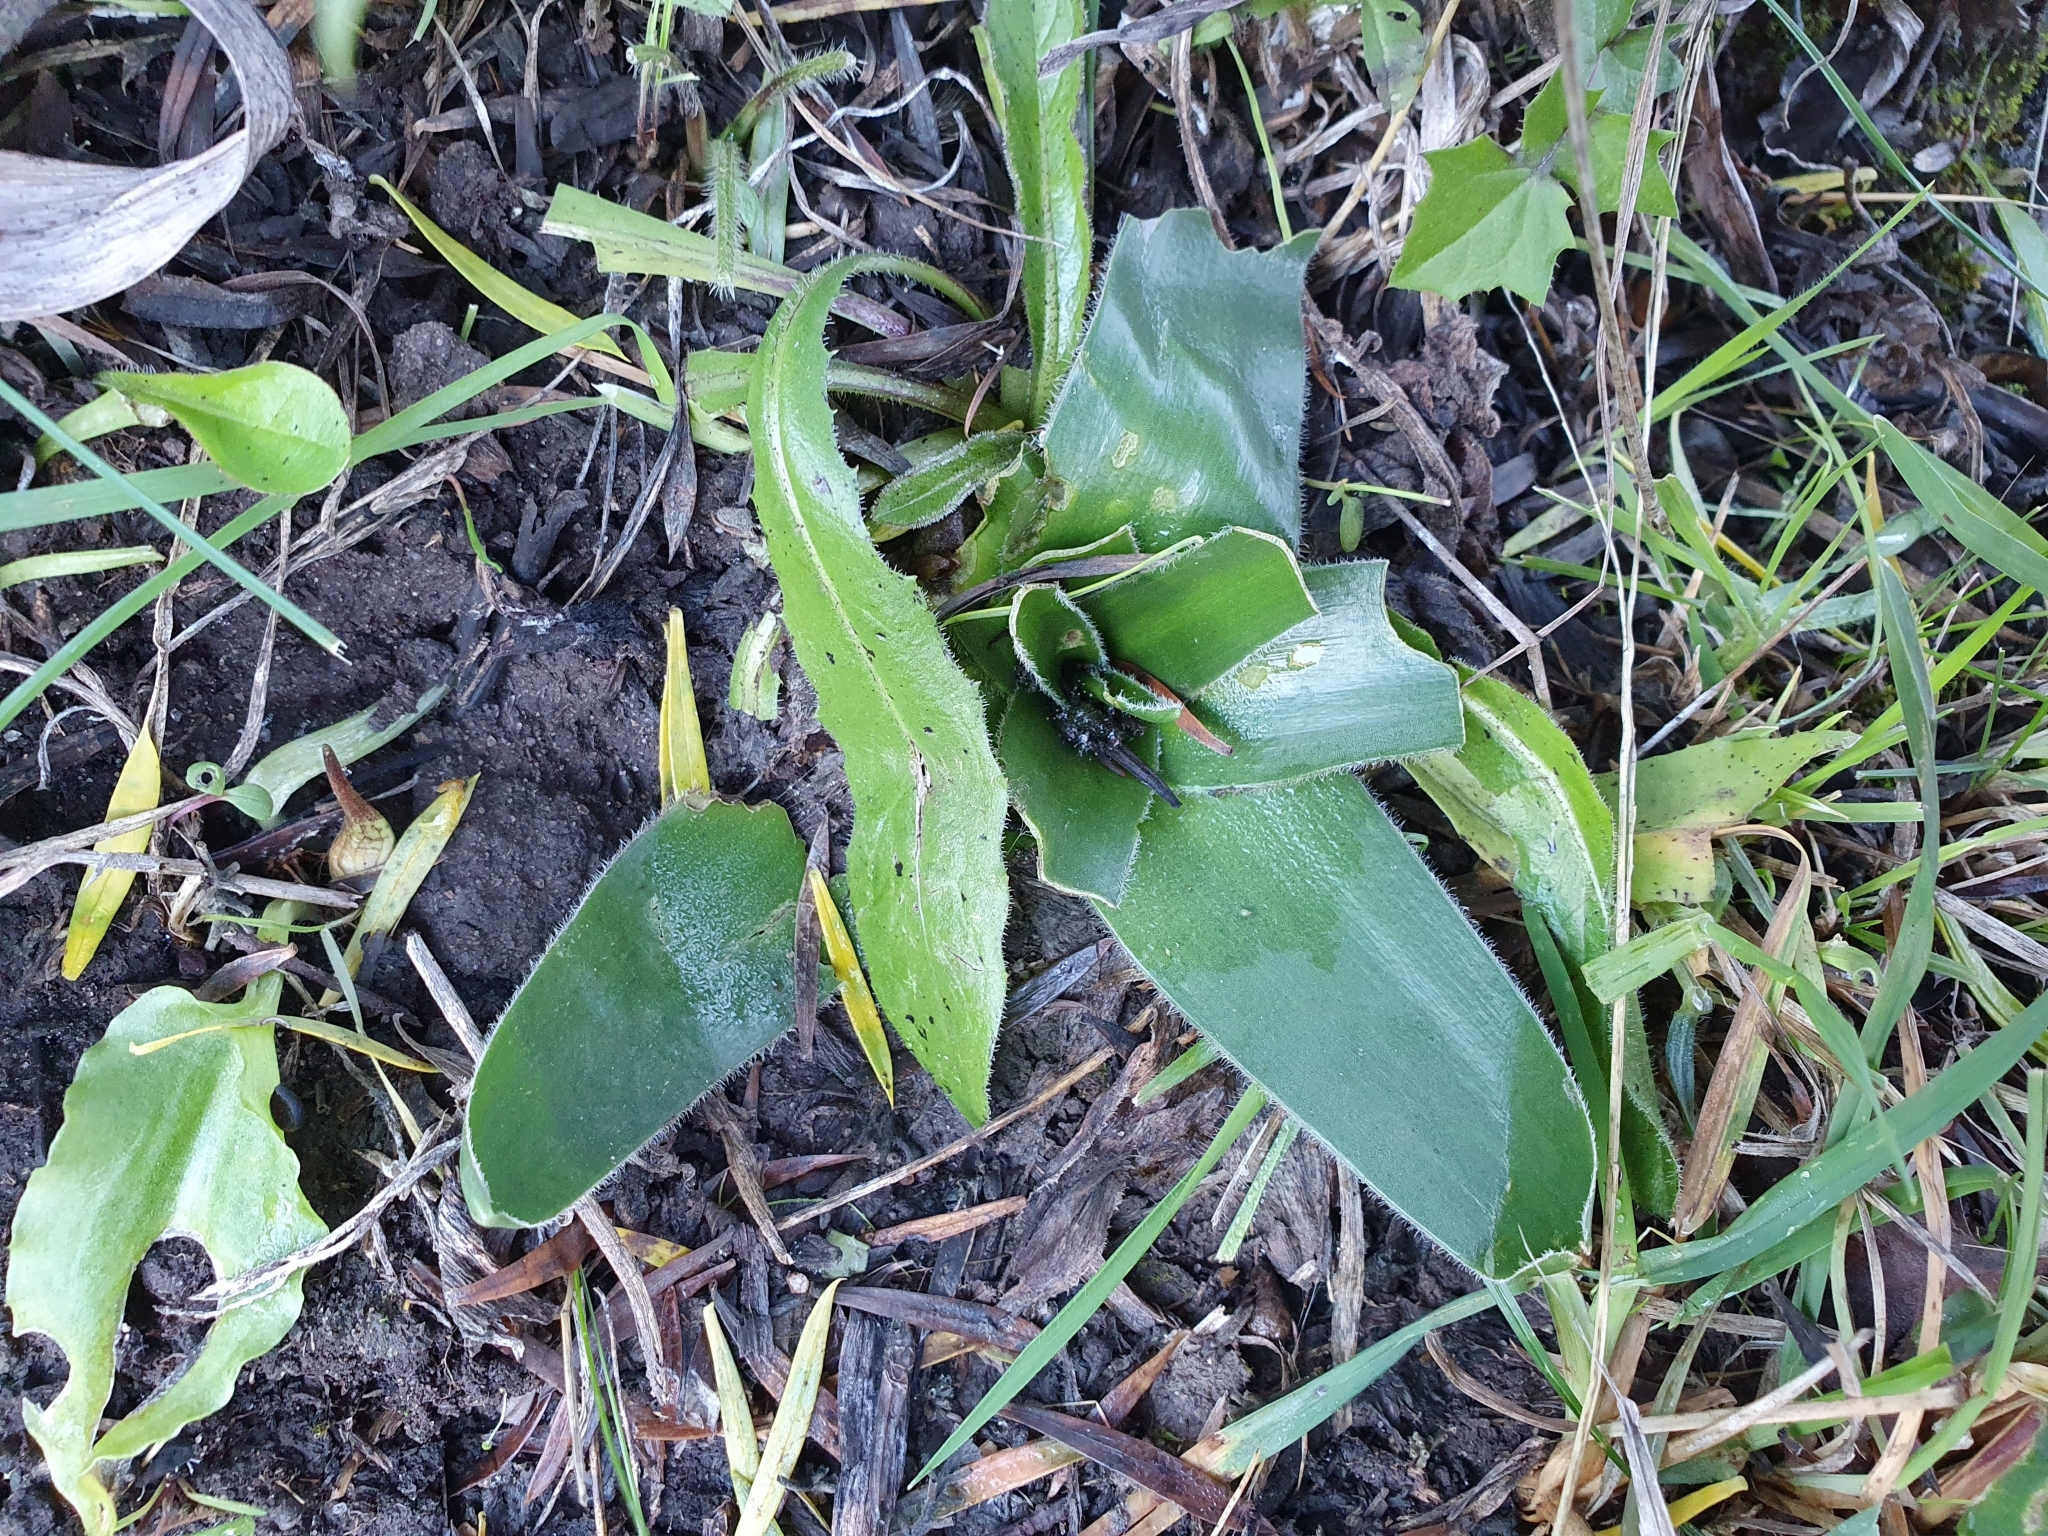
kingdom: Plantae
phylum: Tracheophyta
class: Liliopsida
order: Asparagales
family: Asparagaceae
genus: Scilla
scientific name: Scilla peruviana
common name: Portuguese squill
